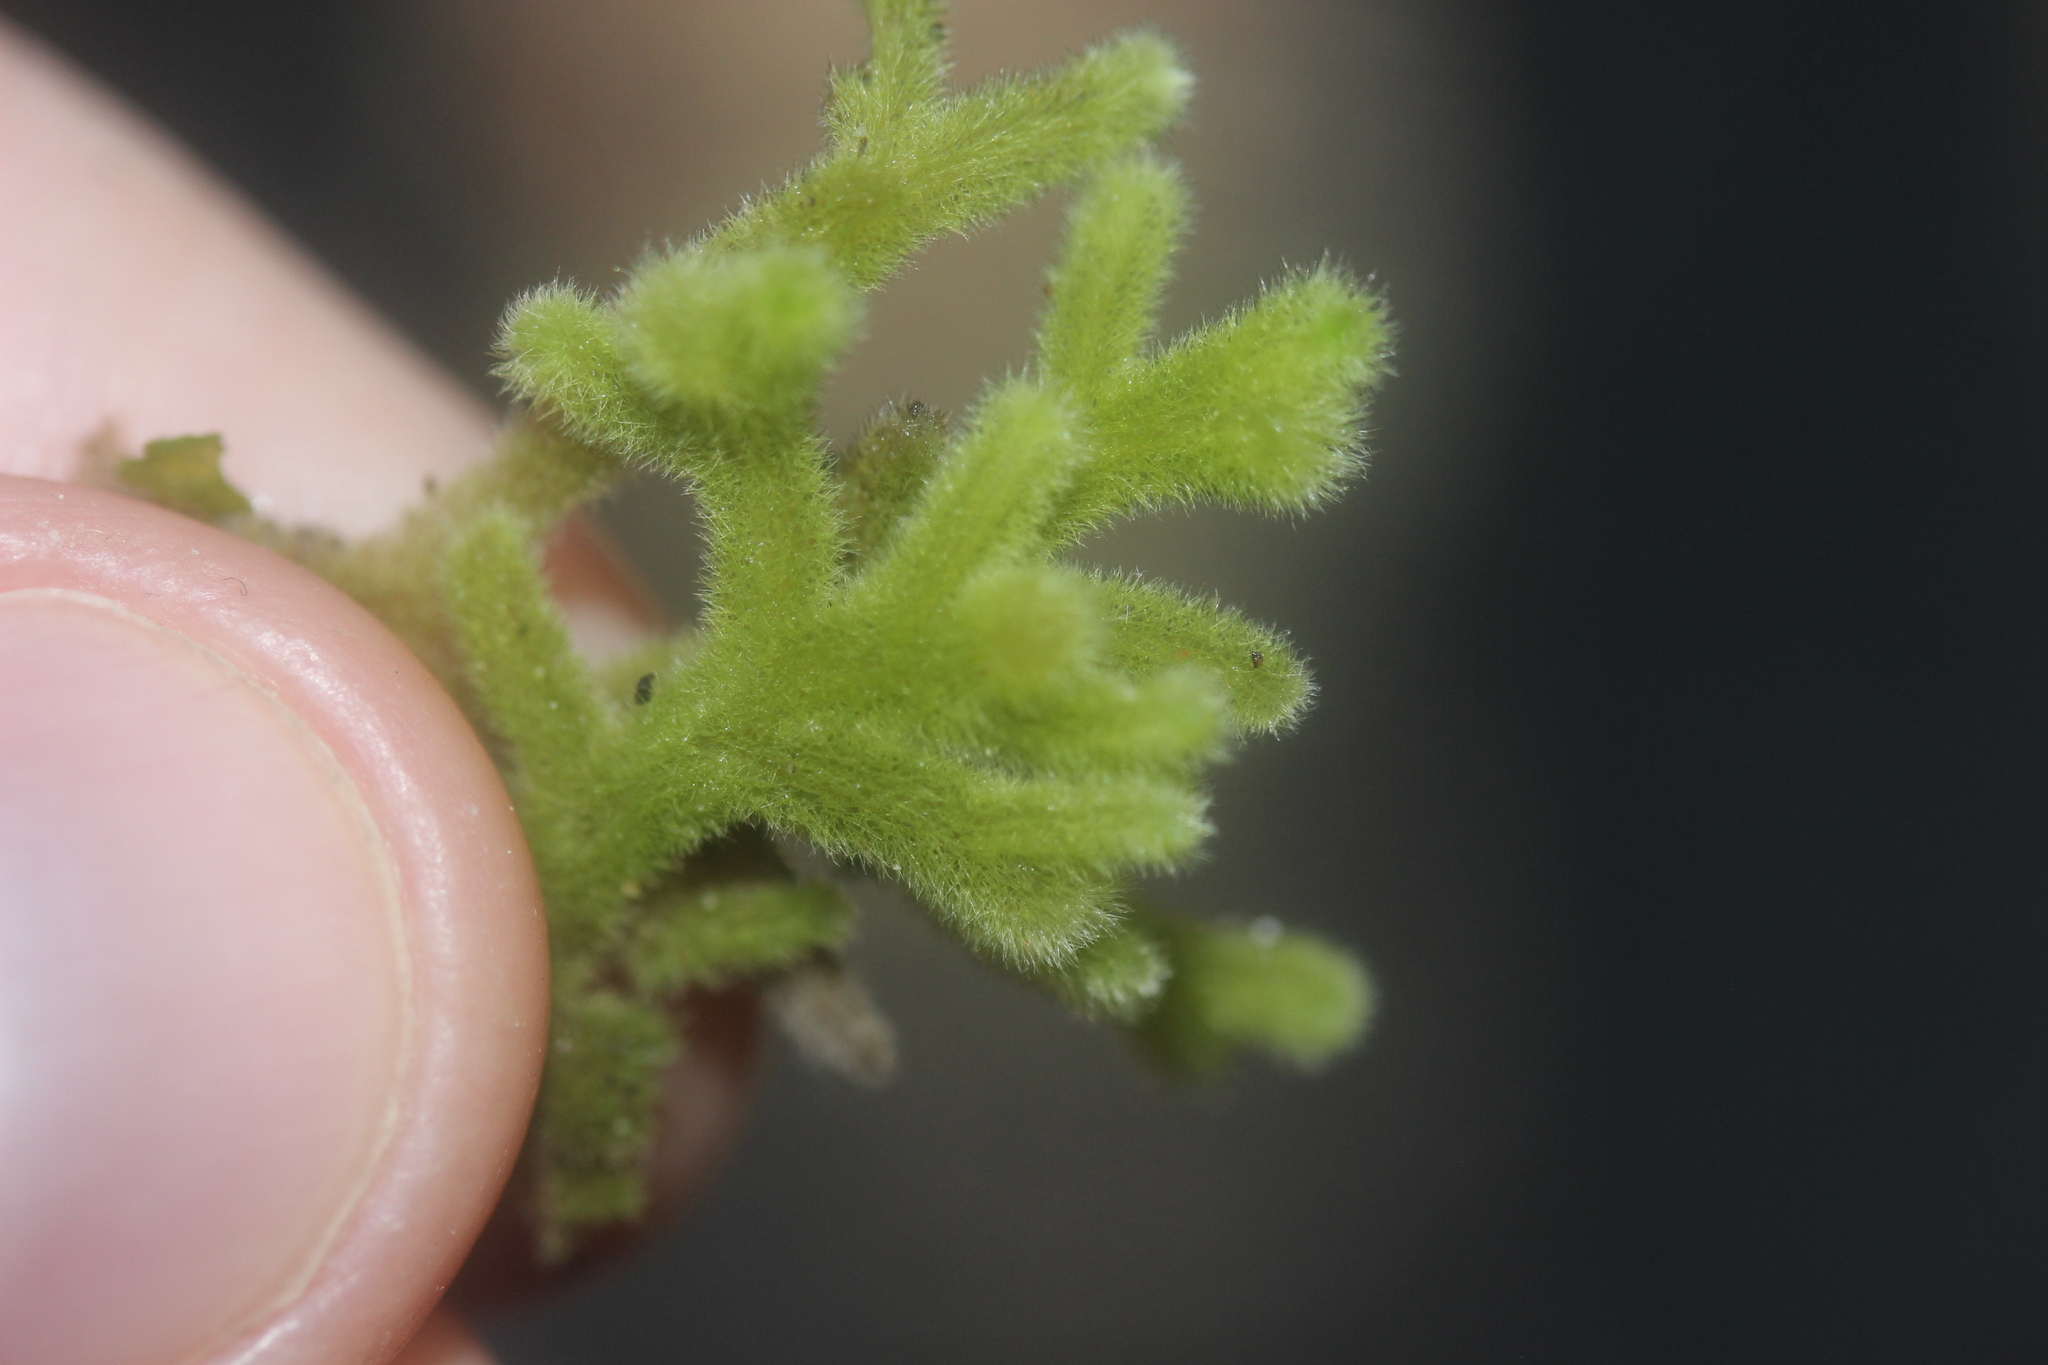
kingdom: Plantae
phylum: Marchantiophyta
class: Jungermanniopsida
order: Jungermanniales
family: Trichocoleaceae
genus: Leiomitra
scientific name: Leiomitra lanata
